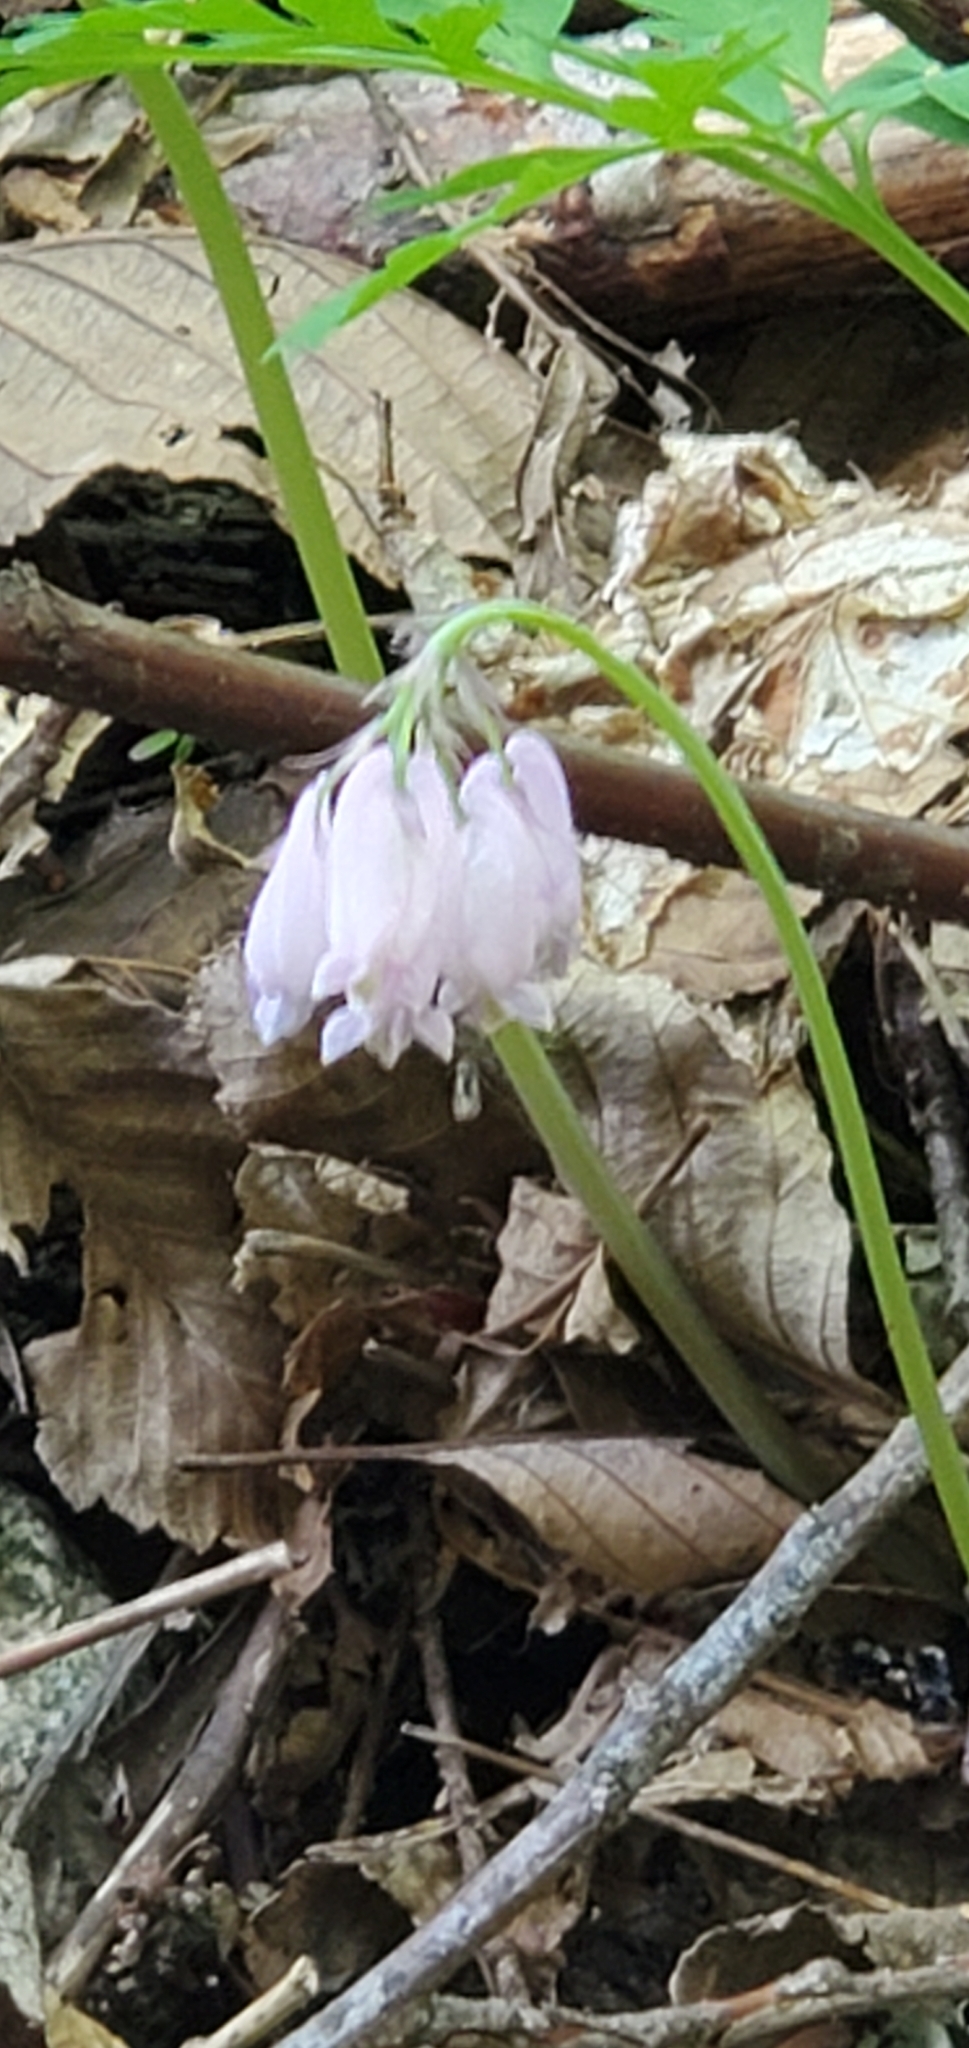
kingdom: Plantae
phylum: Tracheophyta
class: Magnoliopsida
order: Ranunculales
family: Papaveraceae
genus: Dicentra
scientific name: Dicentra formosa
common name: Bleeding-heart
